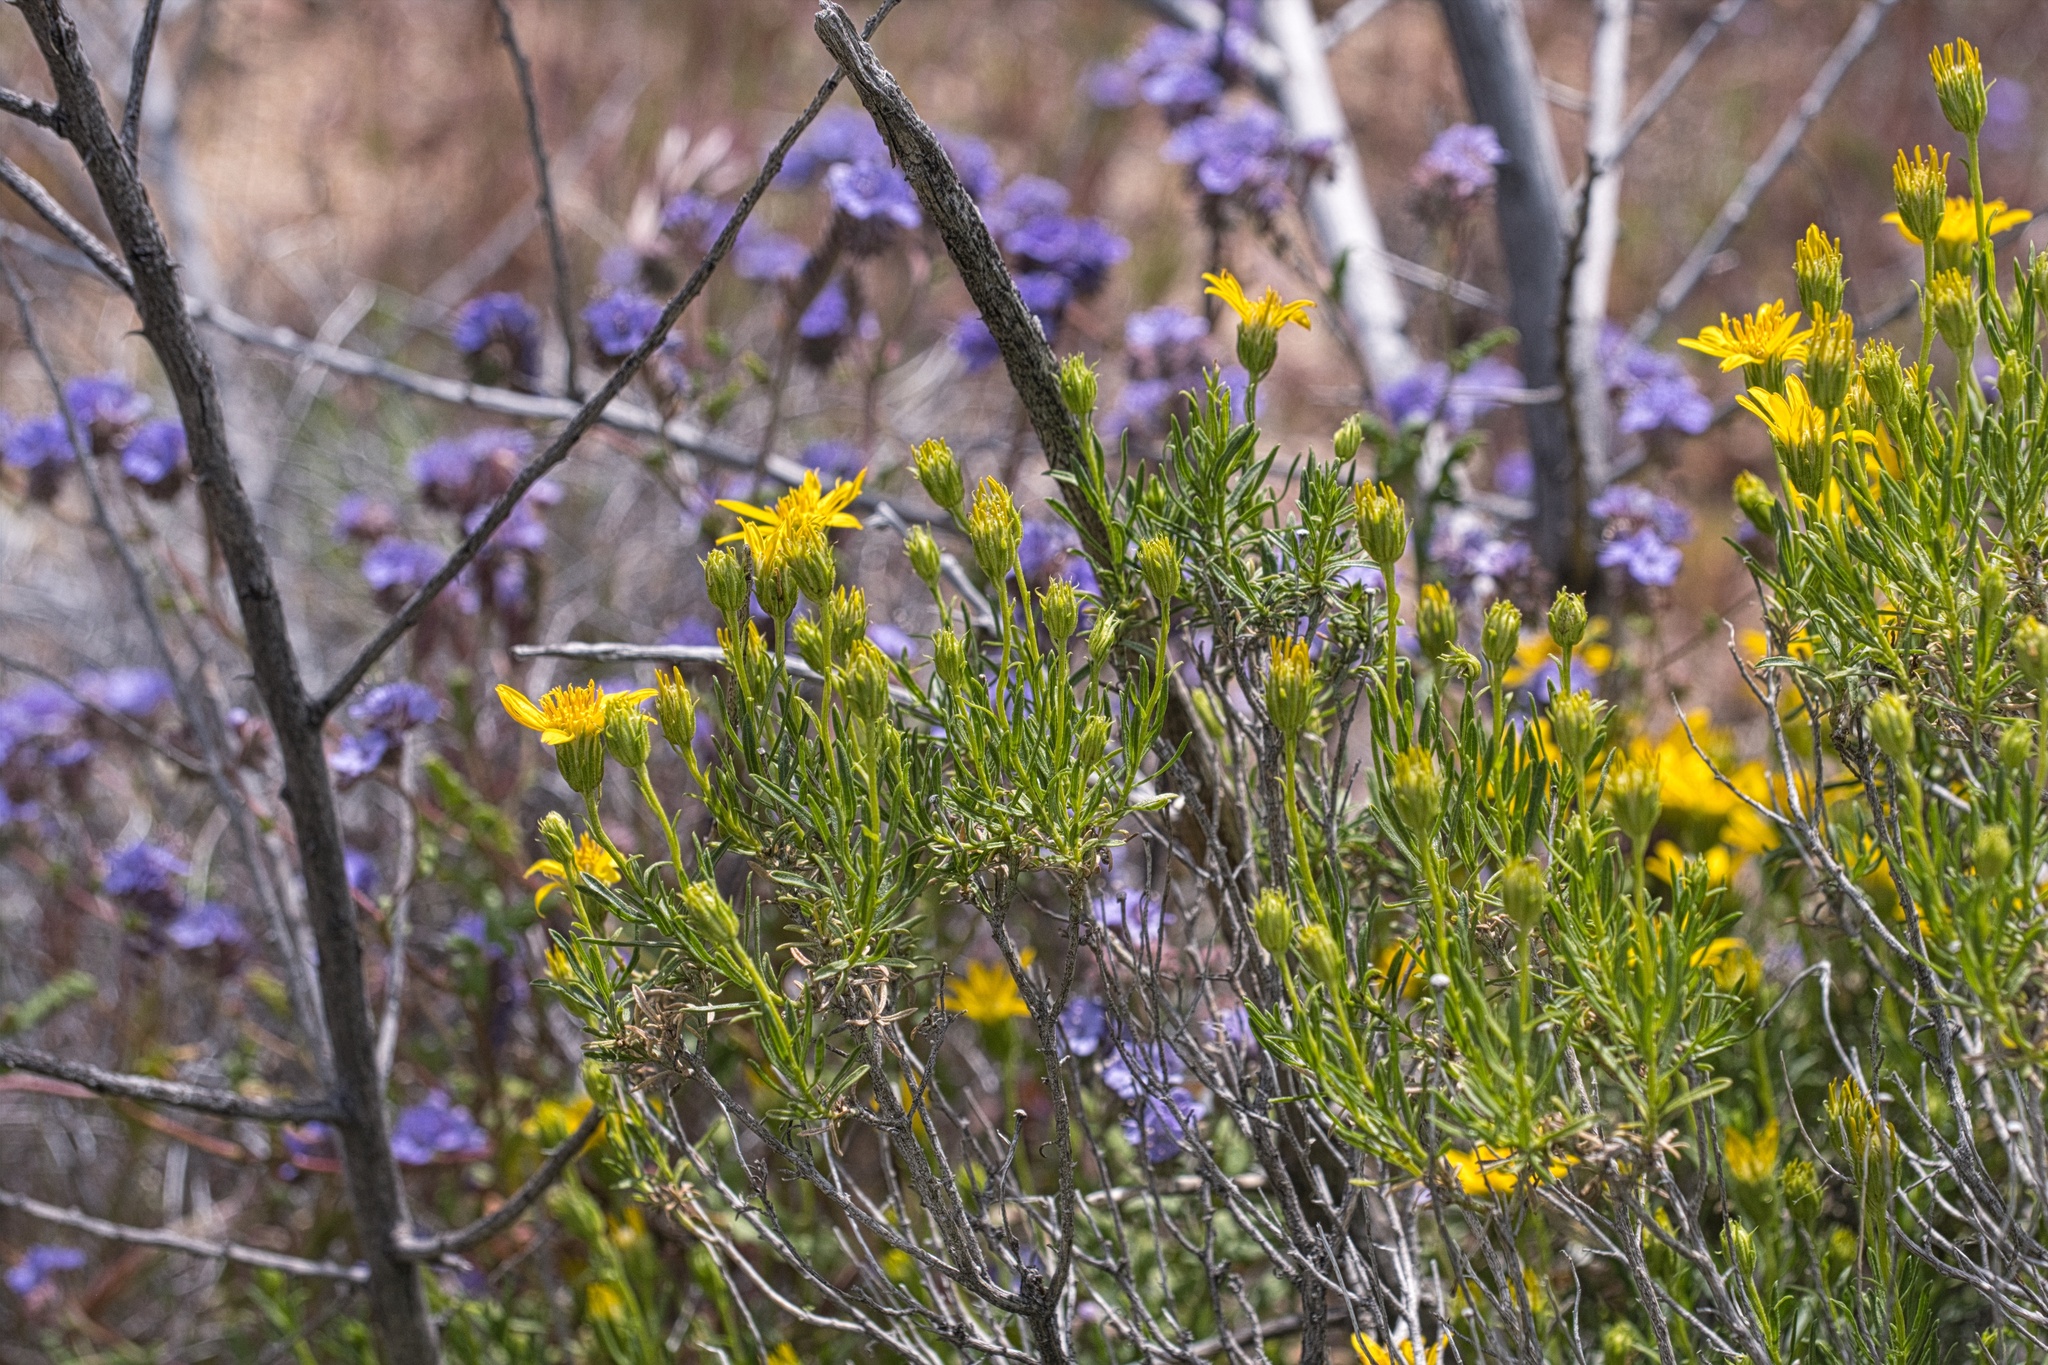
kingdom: Plantae
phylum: Tracheophyta
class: Magnoliopsida
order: Asterales
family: Asteraceae
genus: Ericameria
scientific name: Ericameria linearifolia
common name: Interior goldenbush
